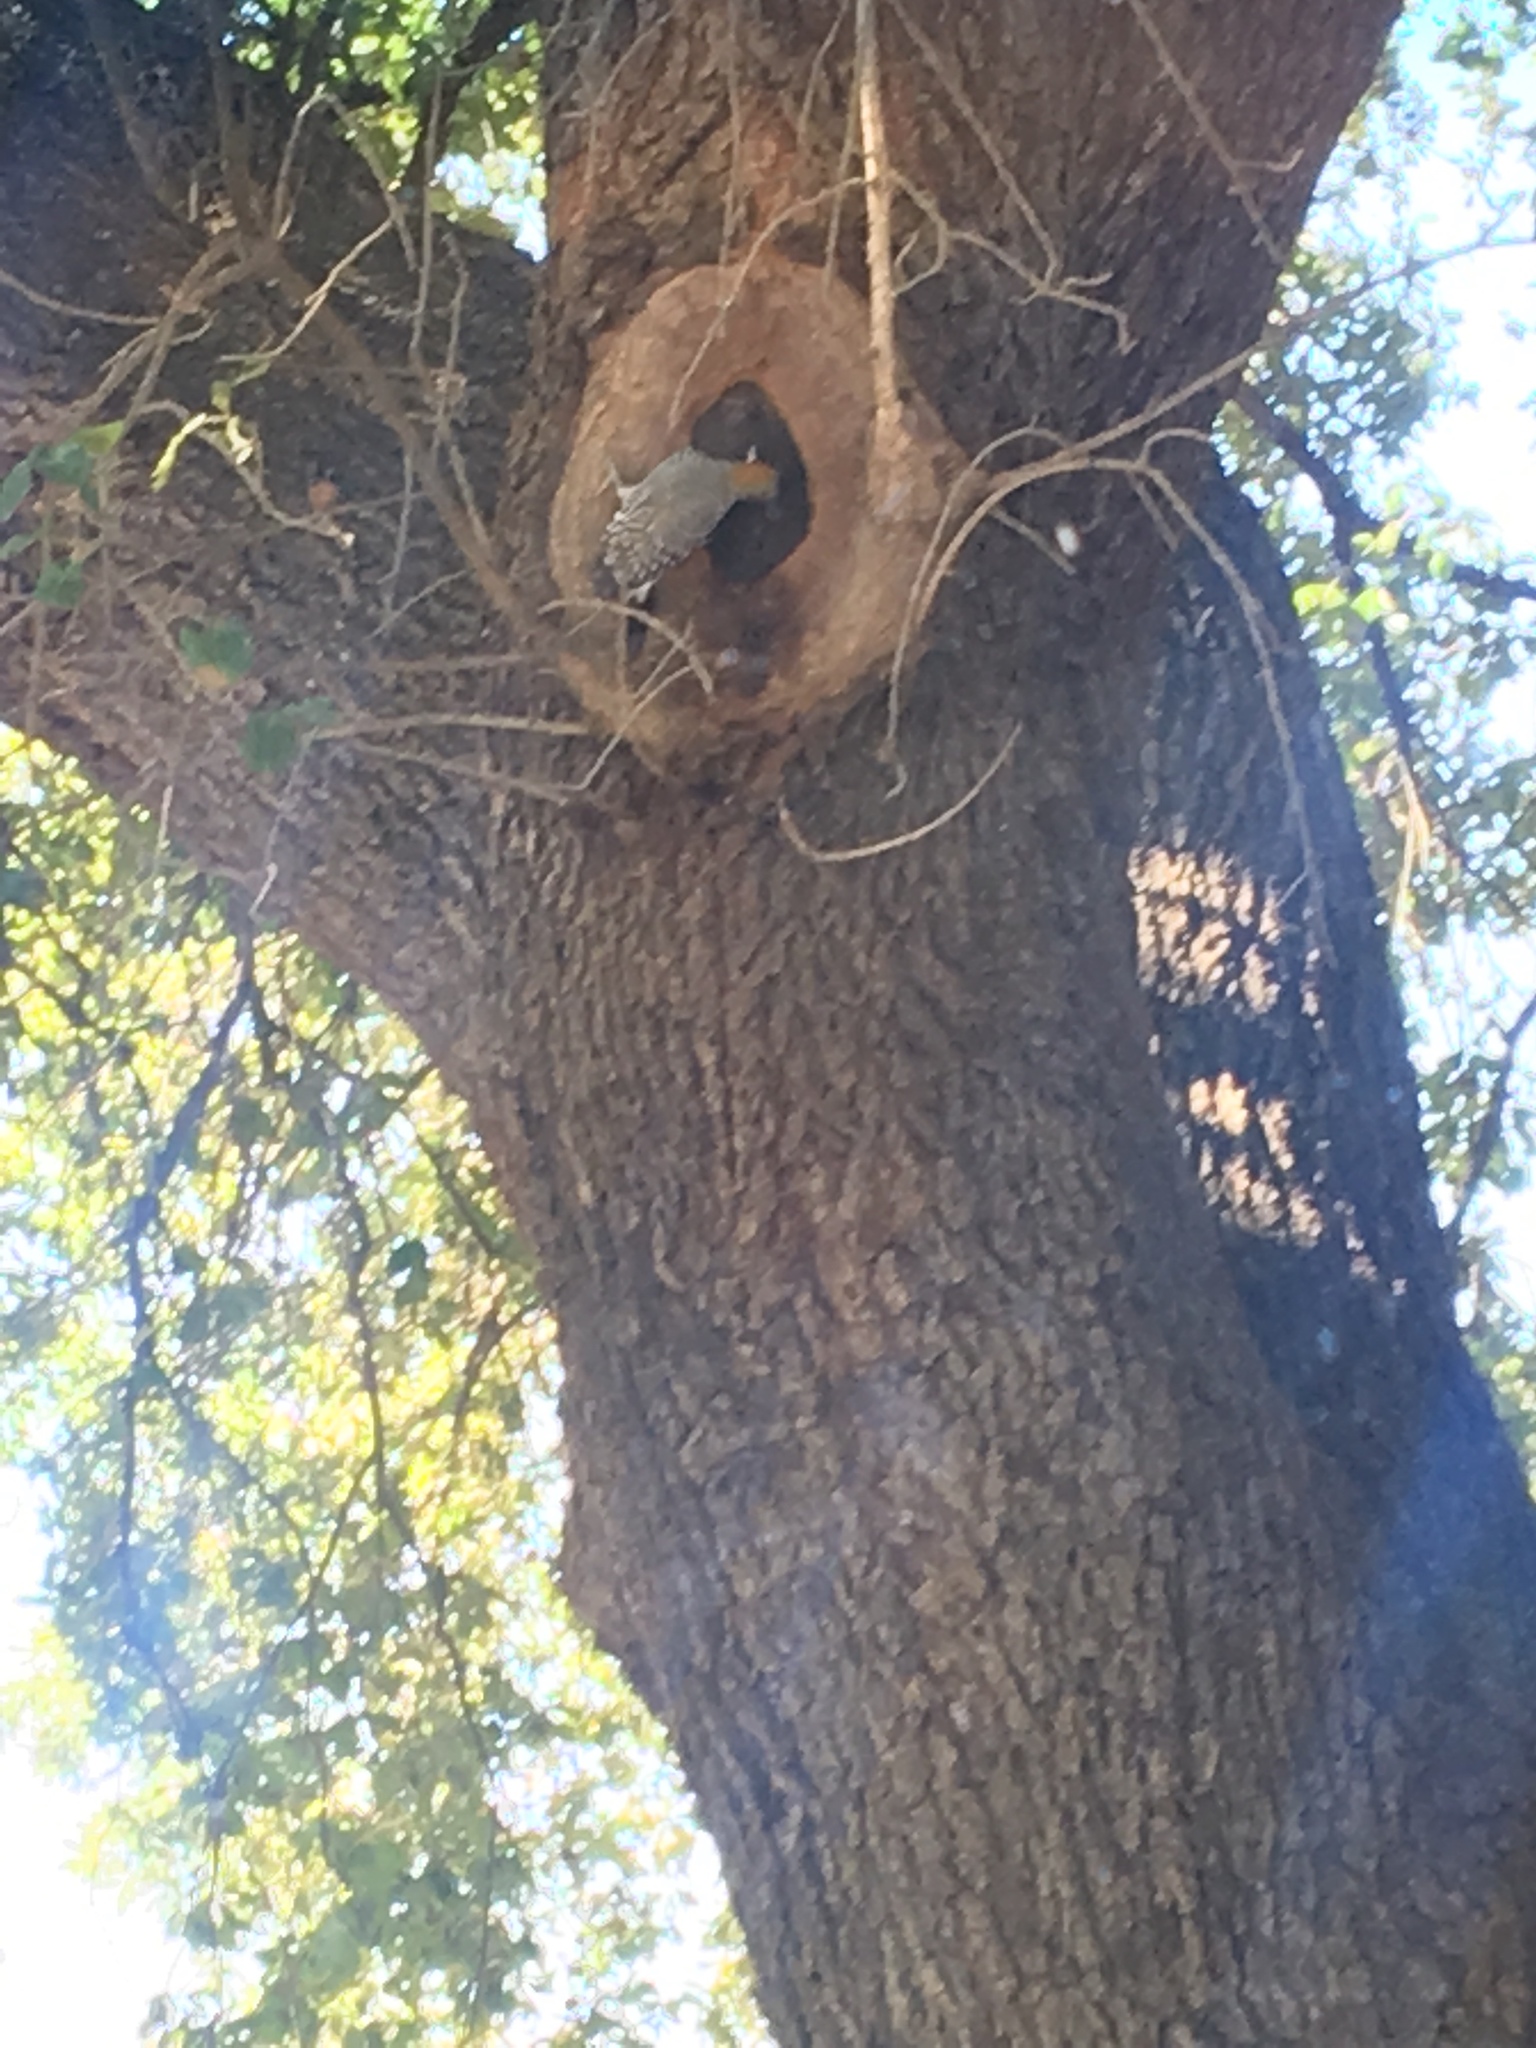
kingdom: Animalia
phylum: Chordata
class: Aves
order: Piciformes
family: Picidae
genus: Melanerpes
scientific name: Melanerpes aurifrons
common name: Golden-fronted woodpecker
